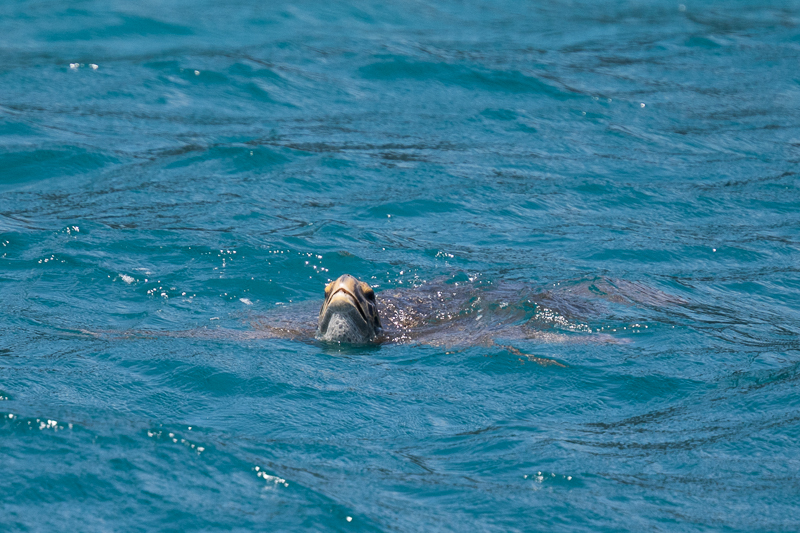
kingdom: Animalia
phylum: Chordata
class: Testudines
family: Cheloniidae
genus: Chelonia
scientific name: Chelonia mydas
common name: Green turtle
